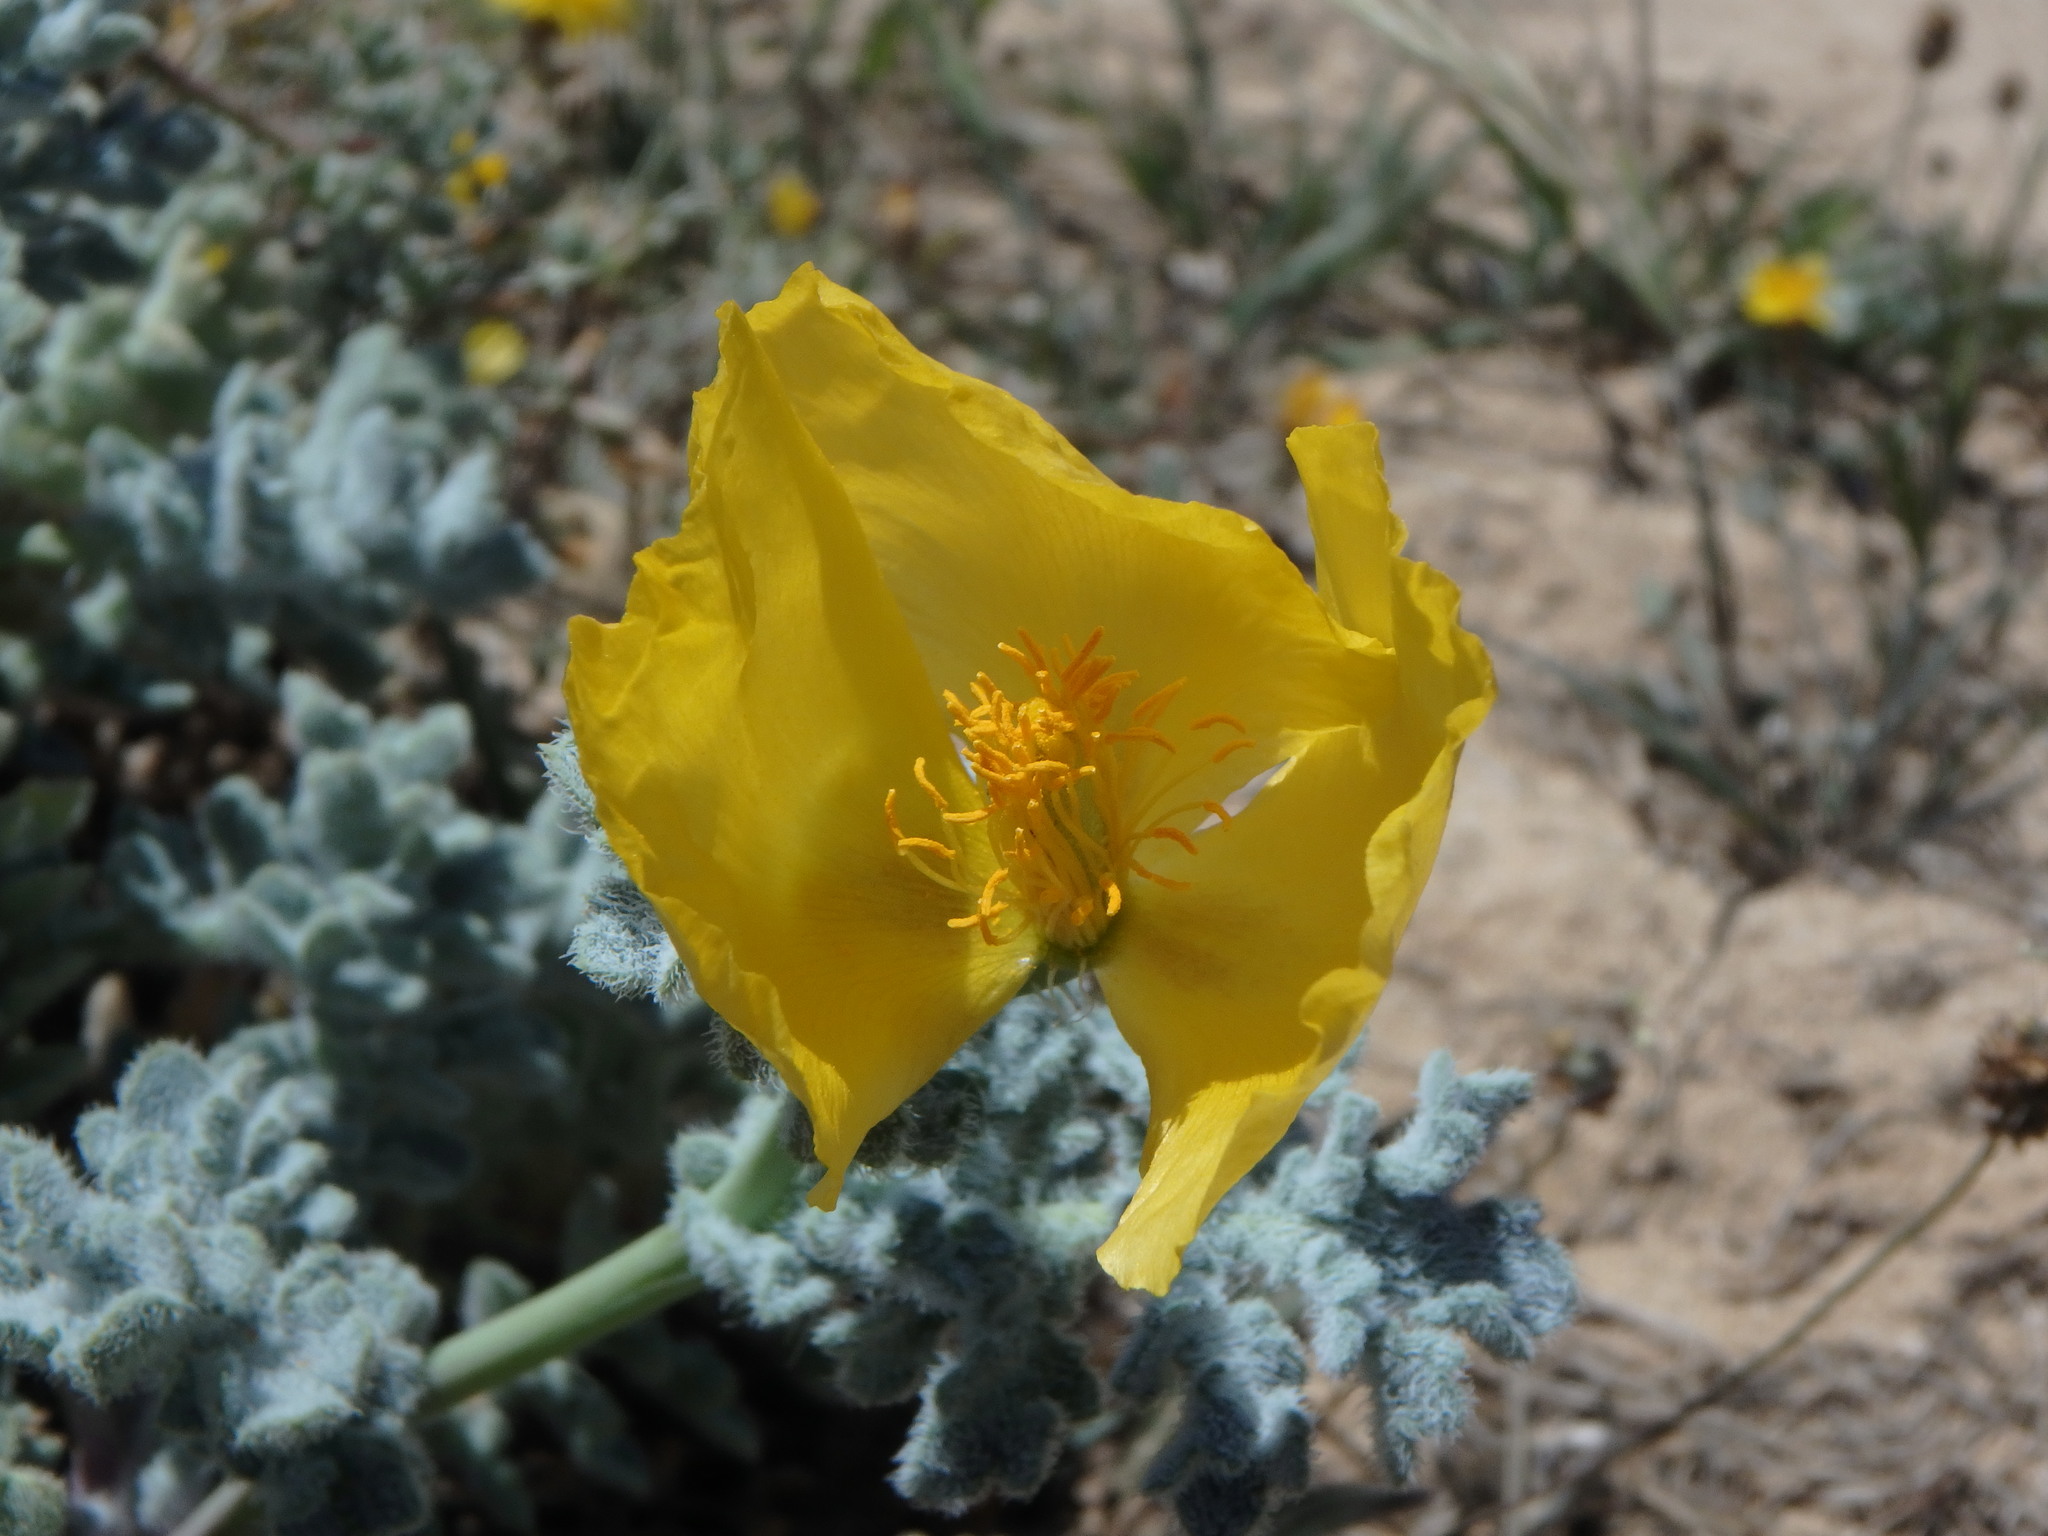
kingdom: Plantae
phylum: Tracheophyta
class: Magnoliopsida
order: Ranunculales
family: Papaveraceae
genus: Glaucium
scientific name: Glaucium flavum
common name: Yellow horned-poppy
